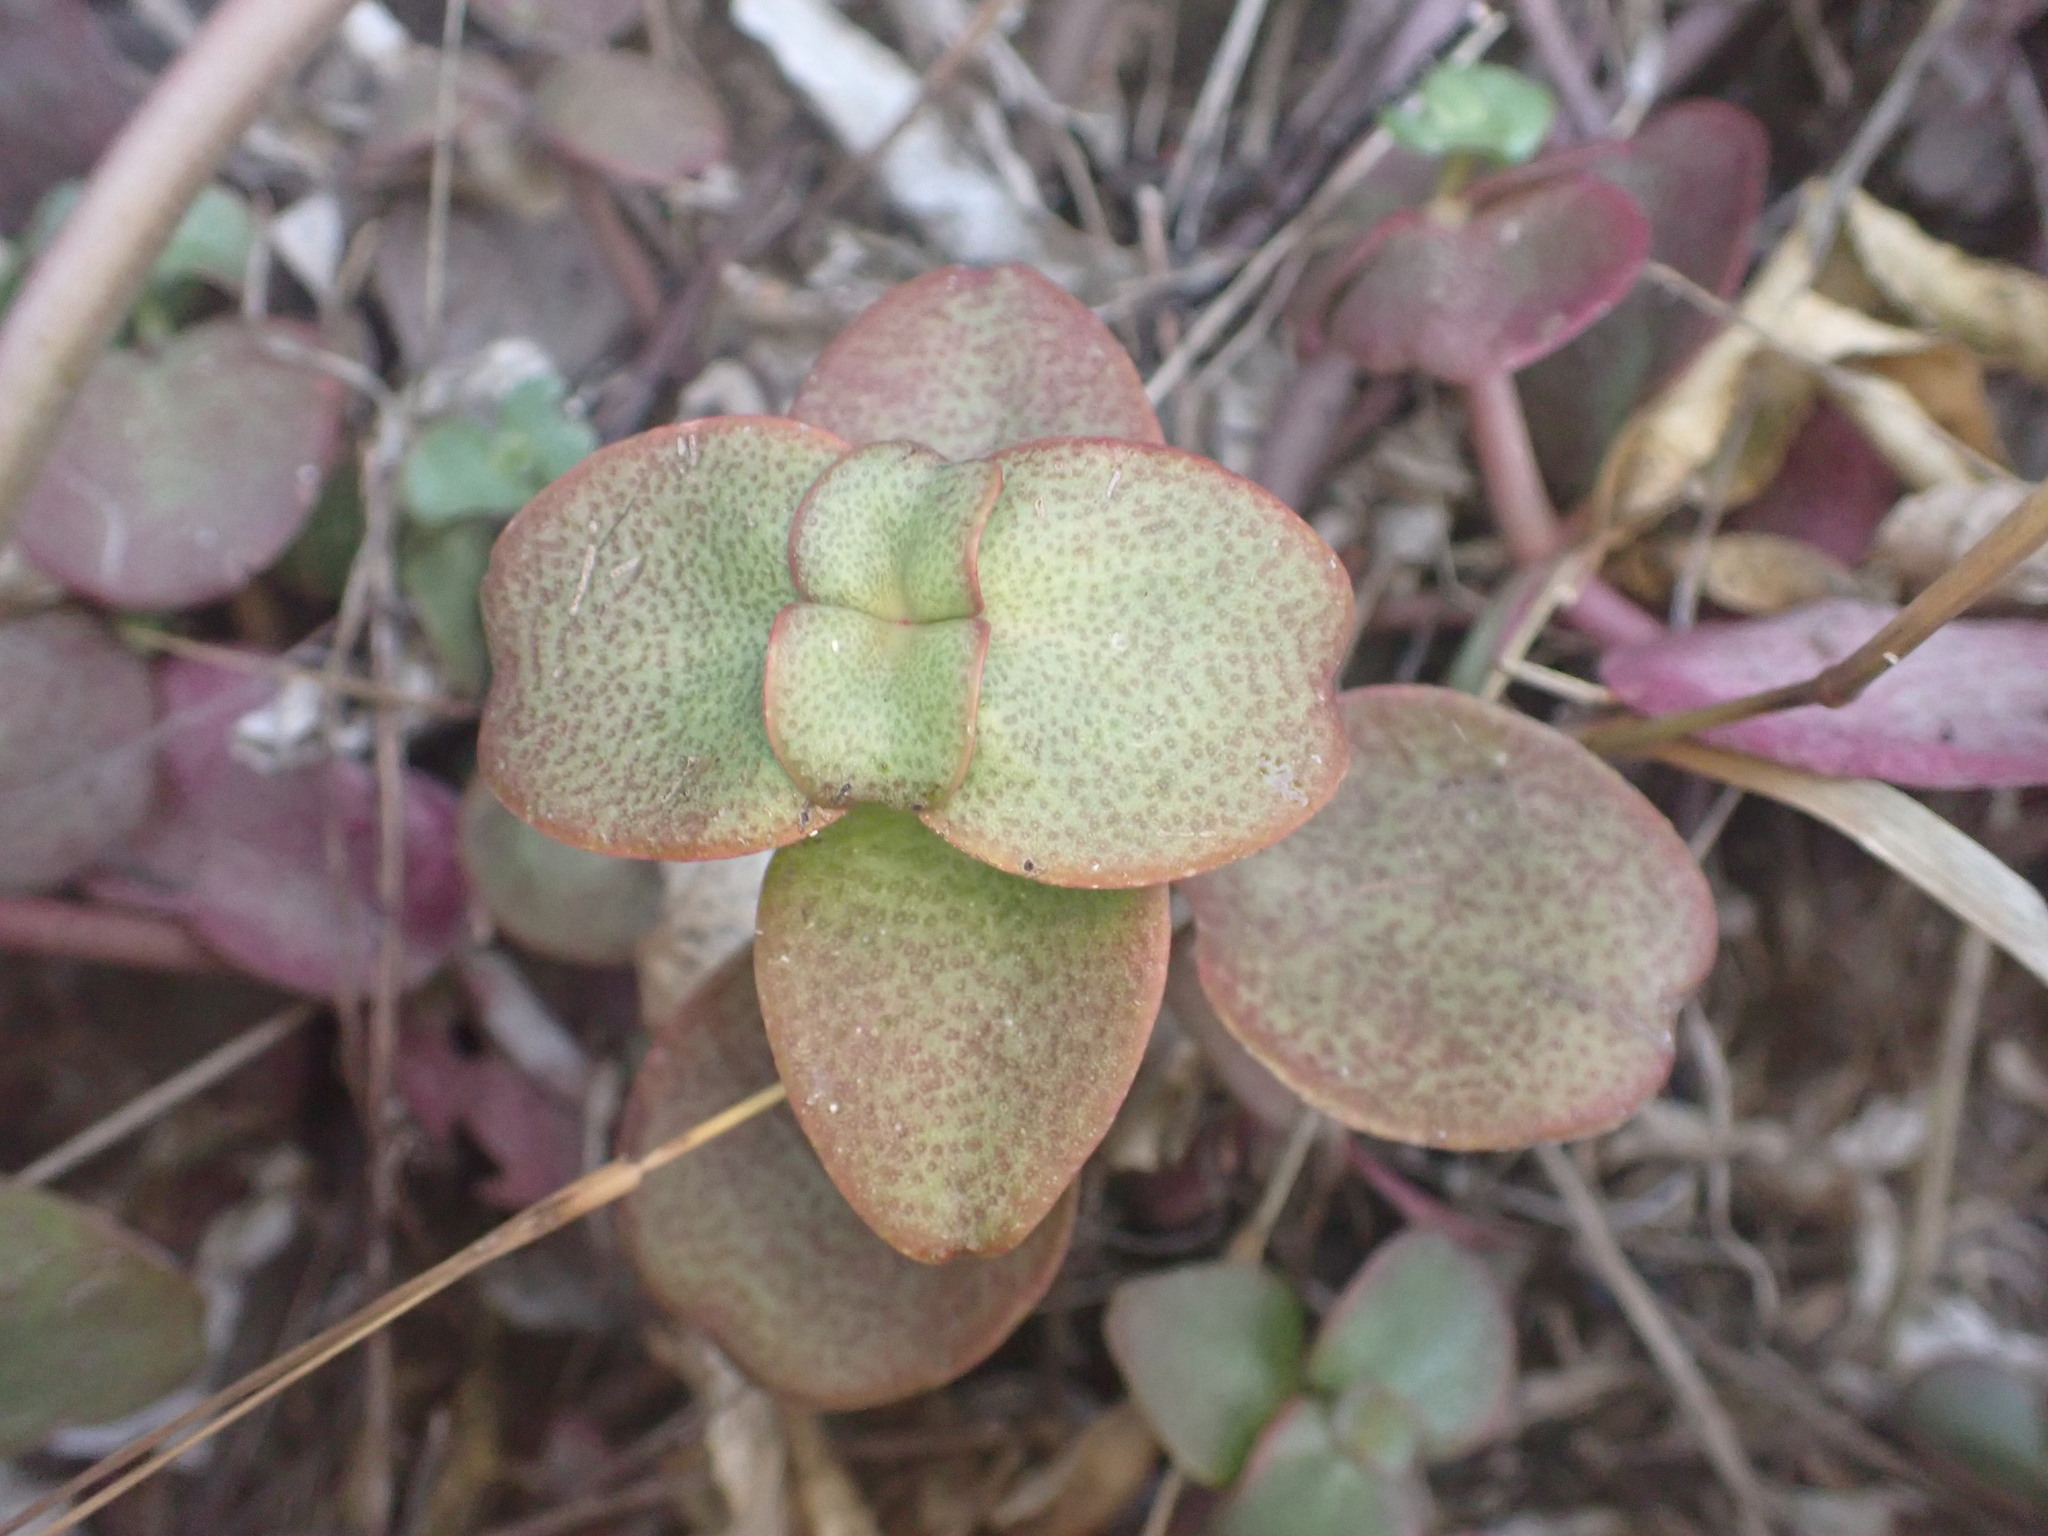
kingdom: Plantae
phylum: Tracheophyta
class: Magnoliopsida
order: Saxifragales
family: Crassulaceae
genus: Crassula
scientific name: Crassula multicava
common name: Cape province pygmyweed
